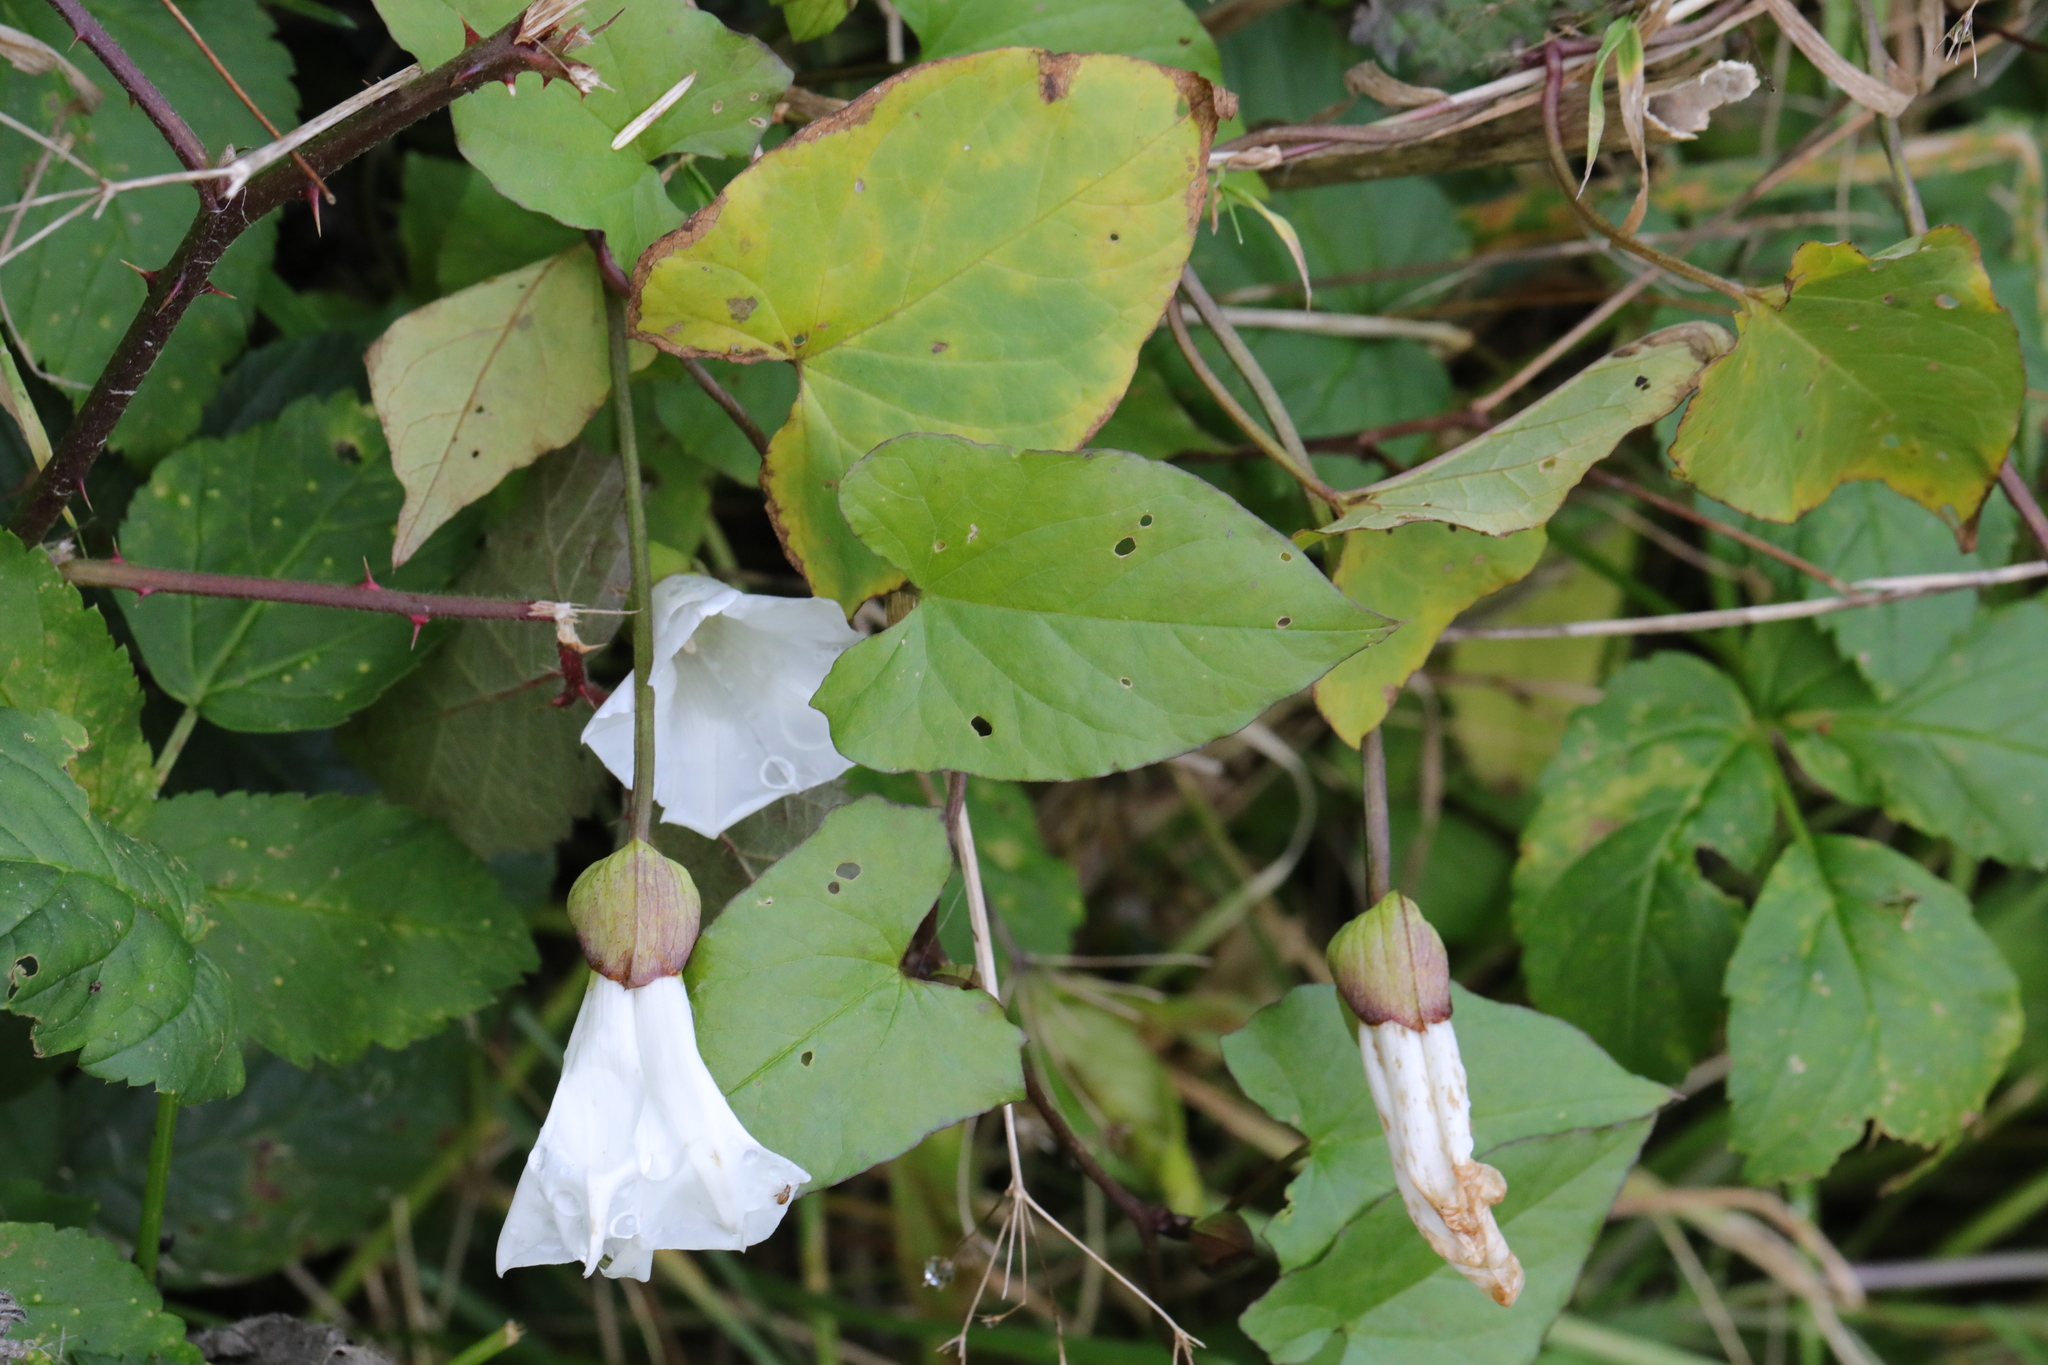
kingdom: Plantae
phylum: Tracheophyta
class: Magnoliopsida
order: Solanales
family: Convolvulaceae
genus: Calystegia
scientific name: Calystegia silvatica
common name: Large bindweed
